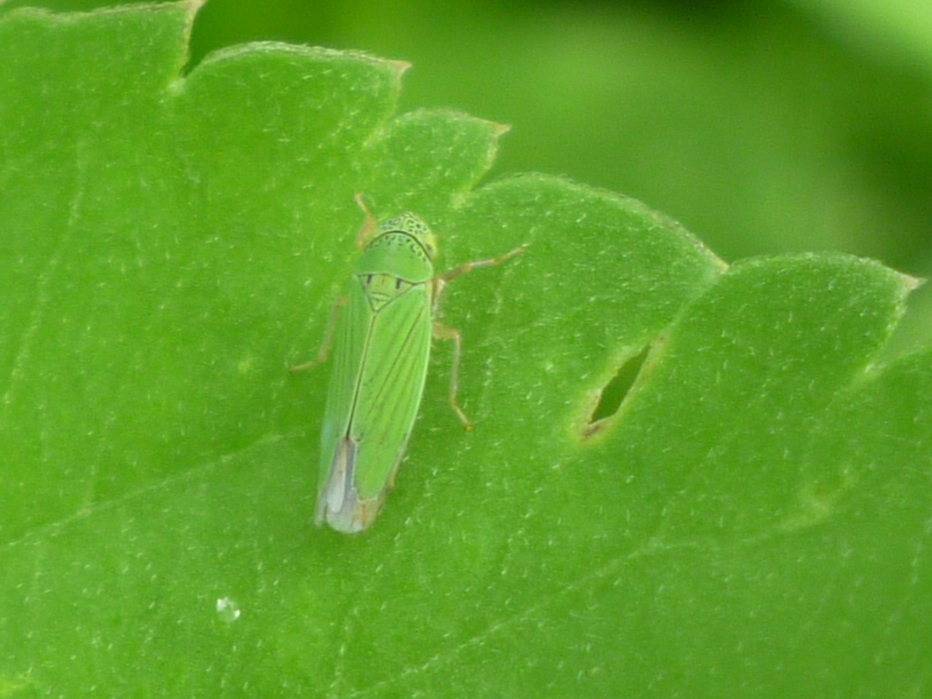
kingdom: Animalia
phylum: Arthropoda
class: Insecta
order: Hemiptera
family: Cicadellidae
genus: Hortensia
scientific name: Hortensia similis
